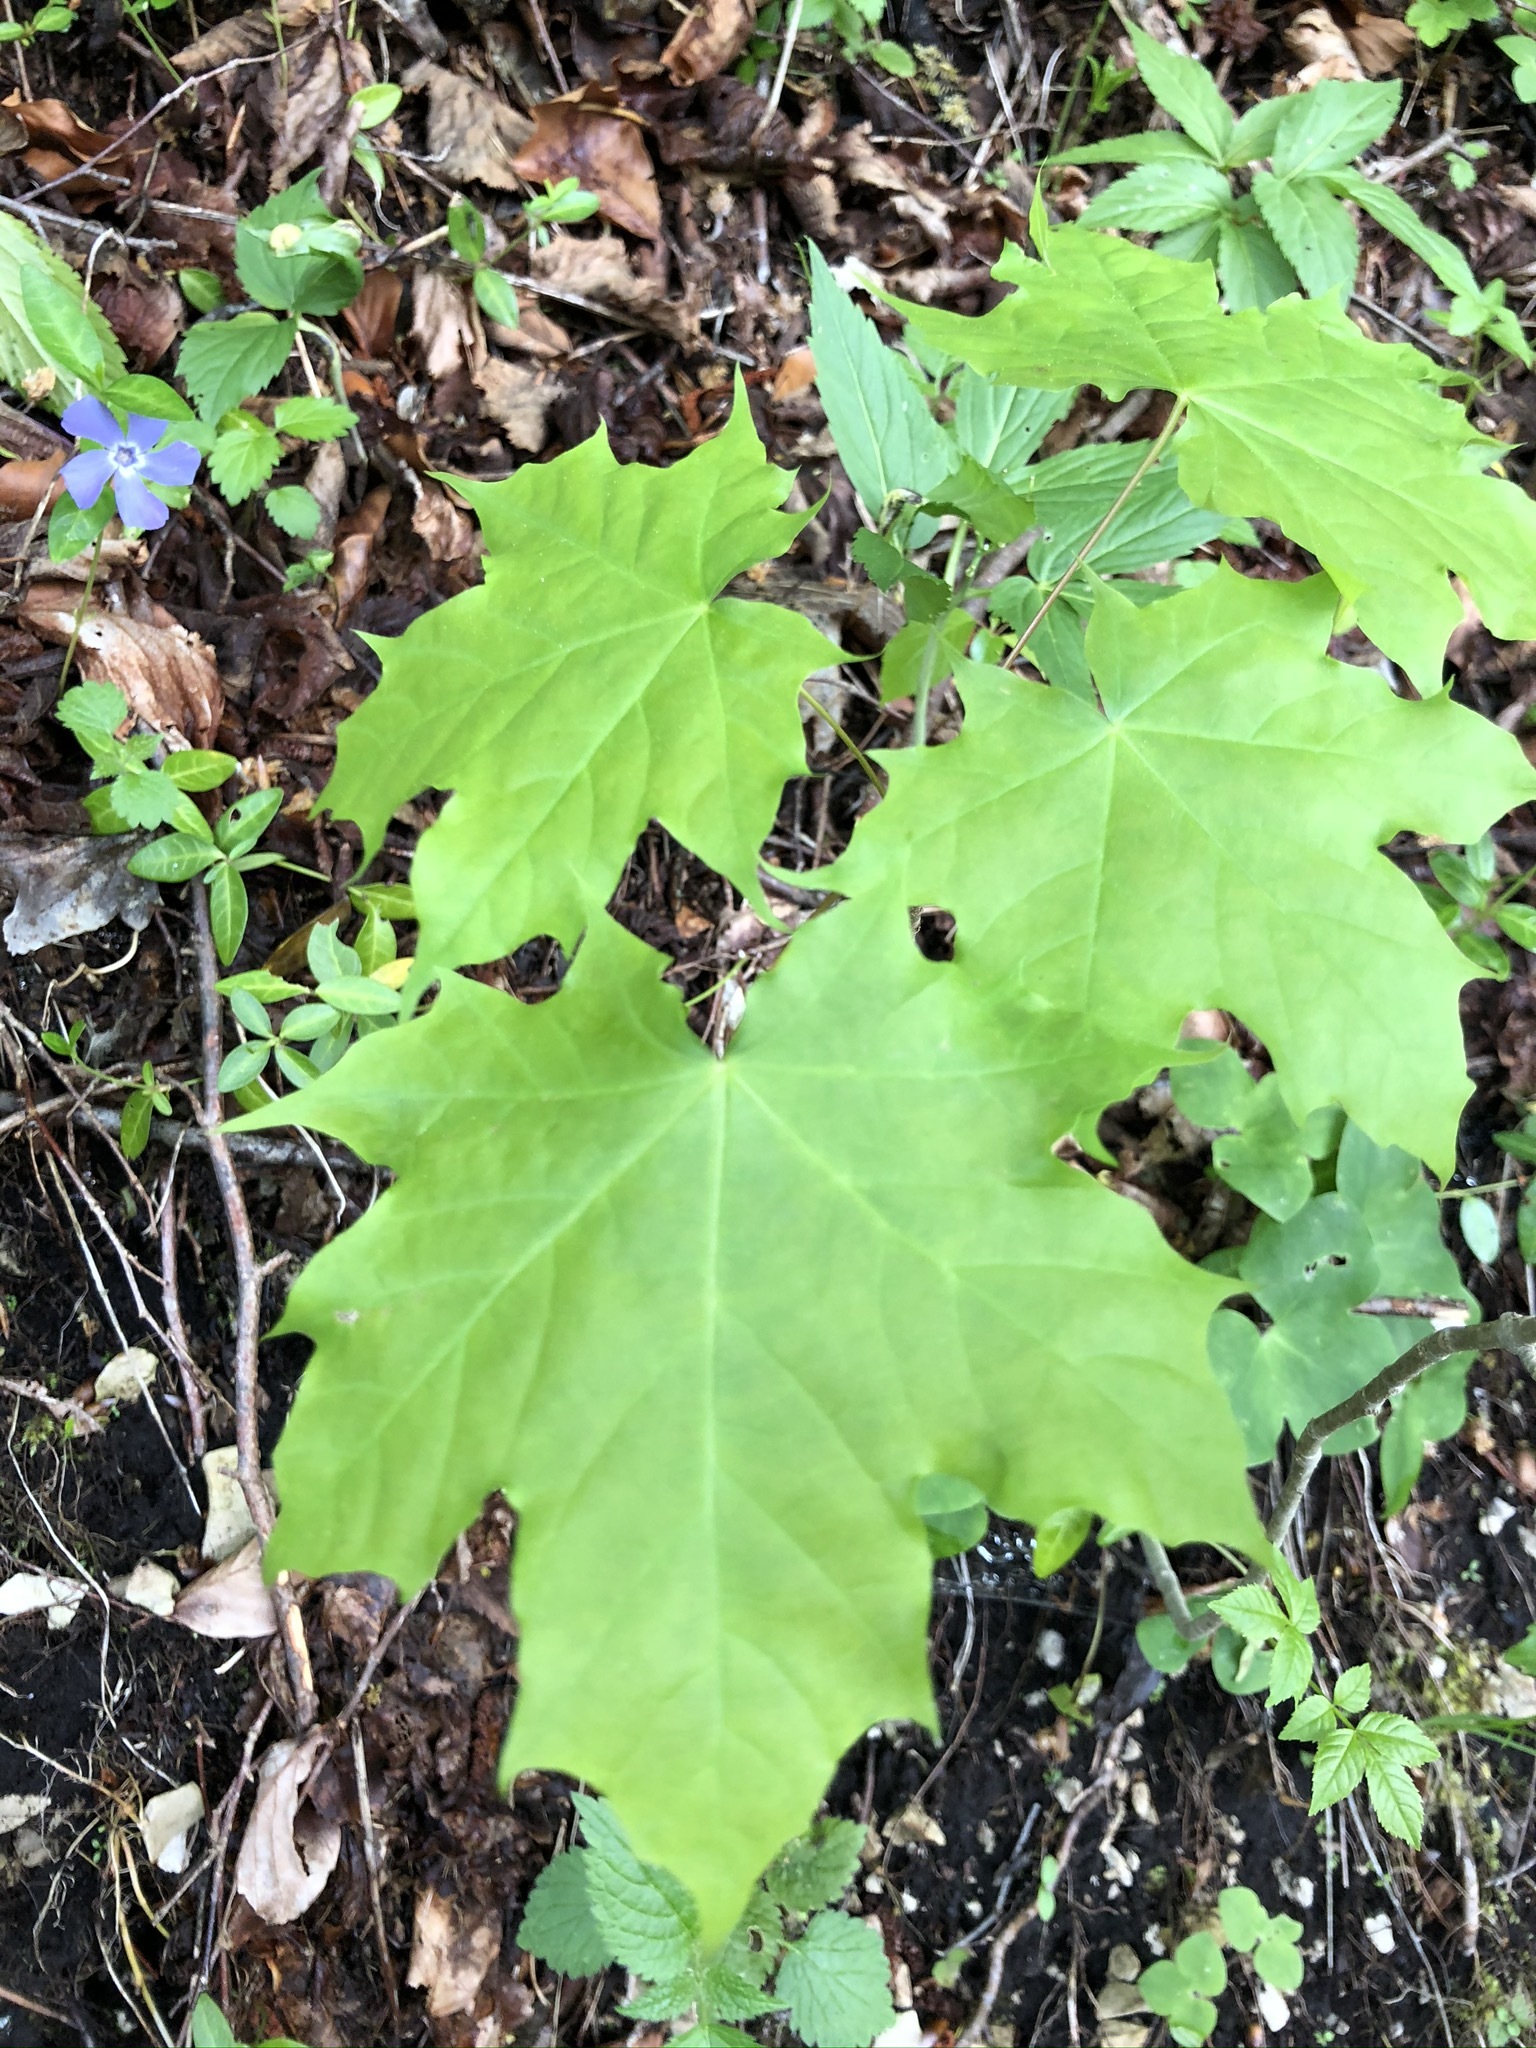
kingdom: Plantae
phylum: Tracheophyta
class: Magnoliopsida
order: Sapindales
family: Sapindaceae
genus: Acer
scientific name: Acer platanoides
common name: Norway maple
